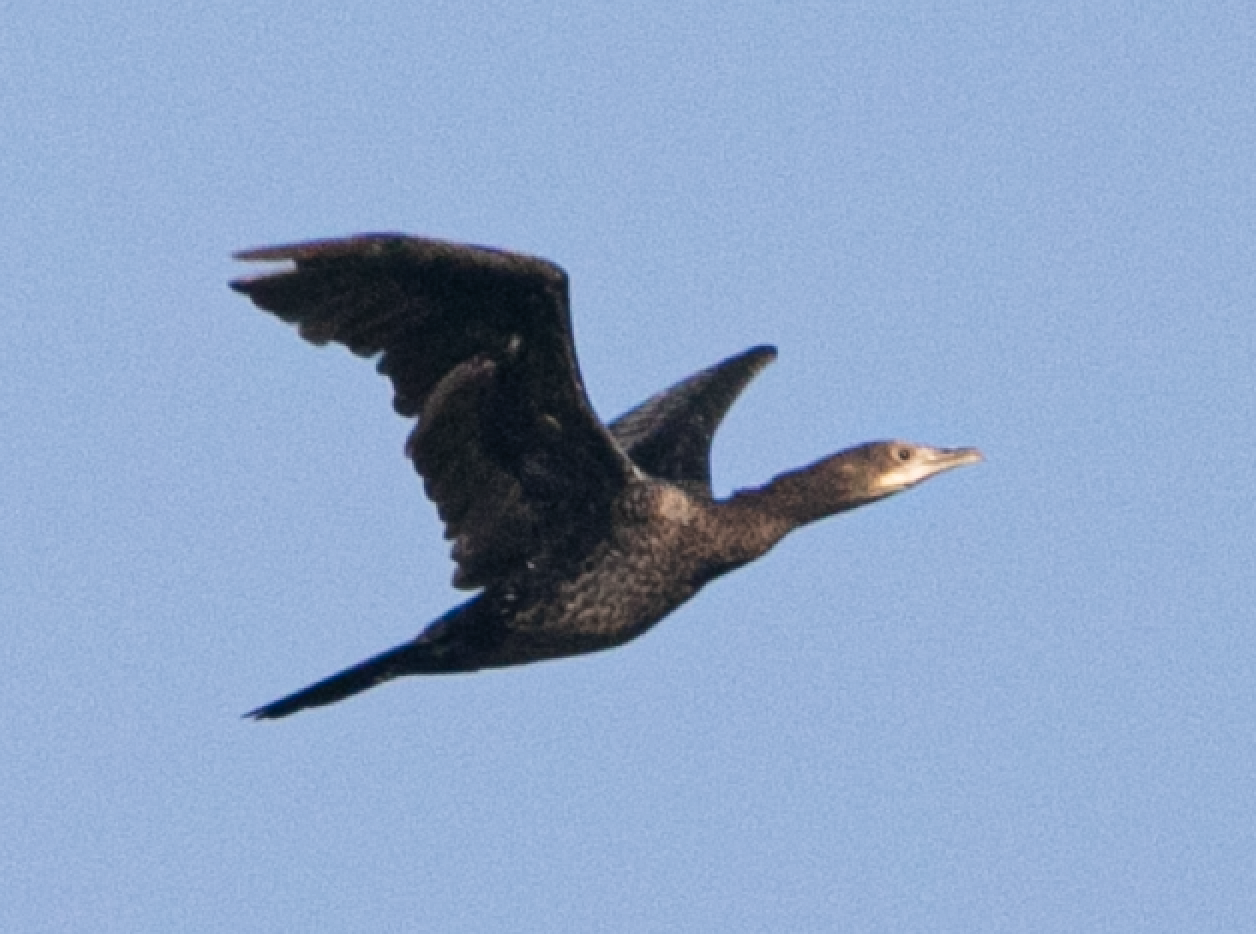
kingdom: Animalia
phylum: Chordata
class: Aves
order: Suliformes
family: Phalacrocoracidae
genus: Microcarbo
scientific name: Microcarbo pygmaeus
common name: Pygmy cormorant
